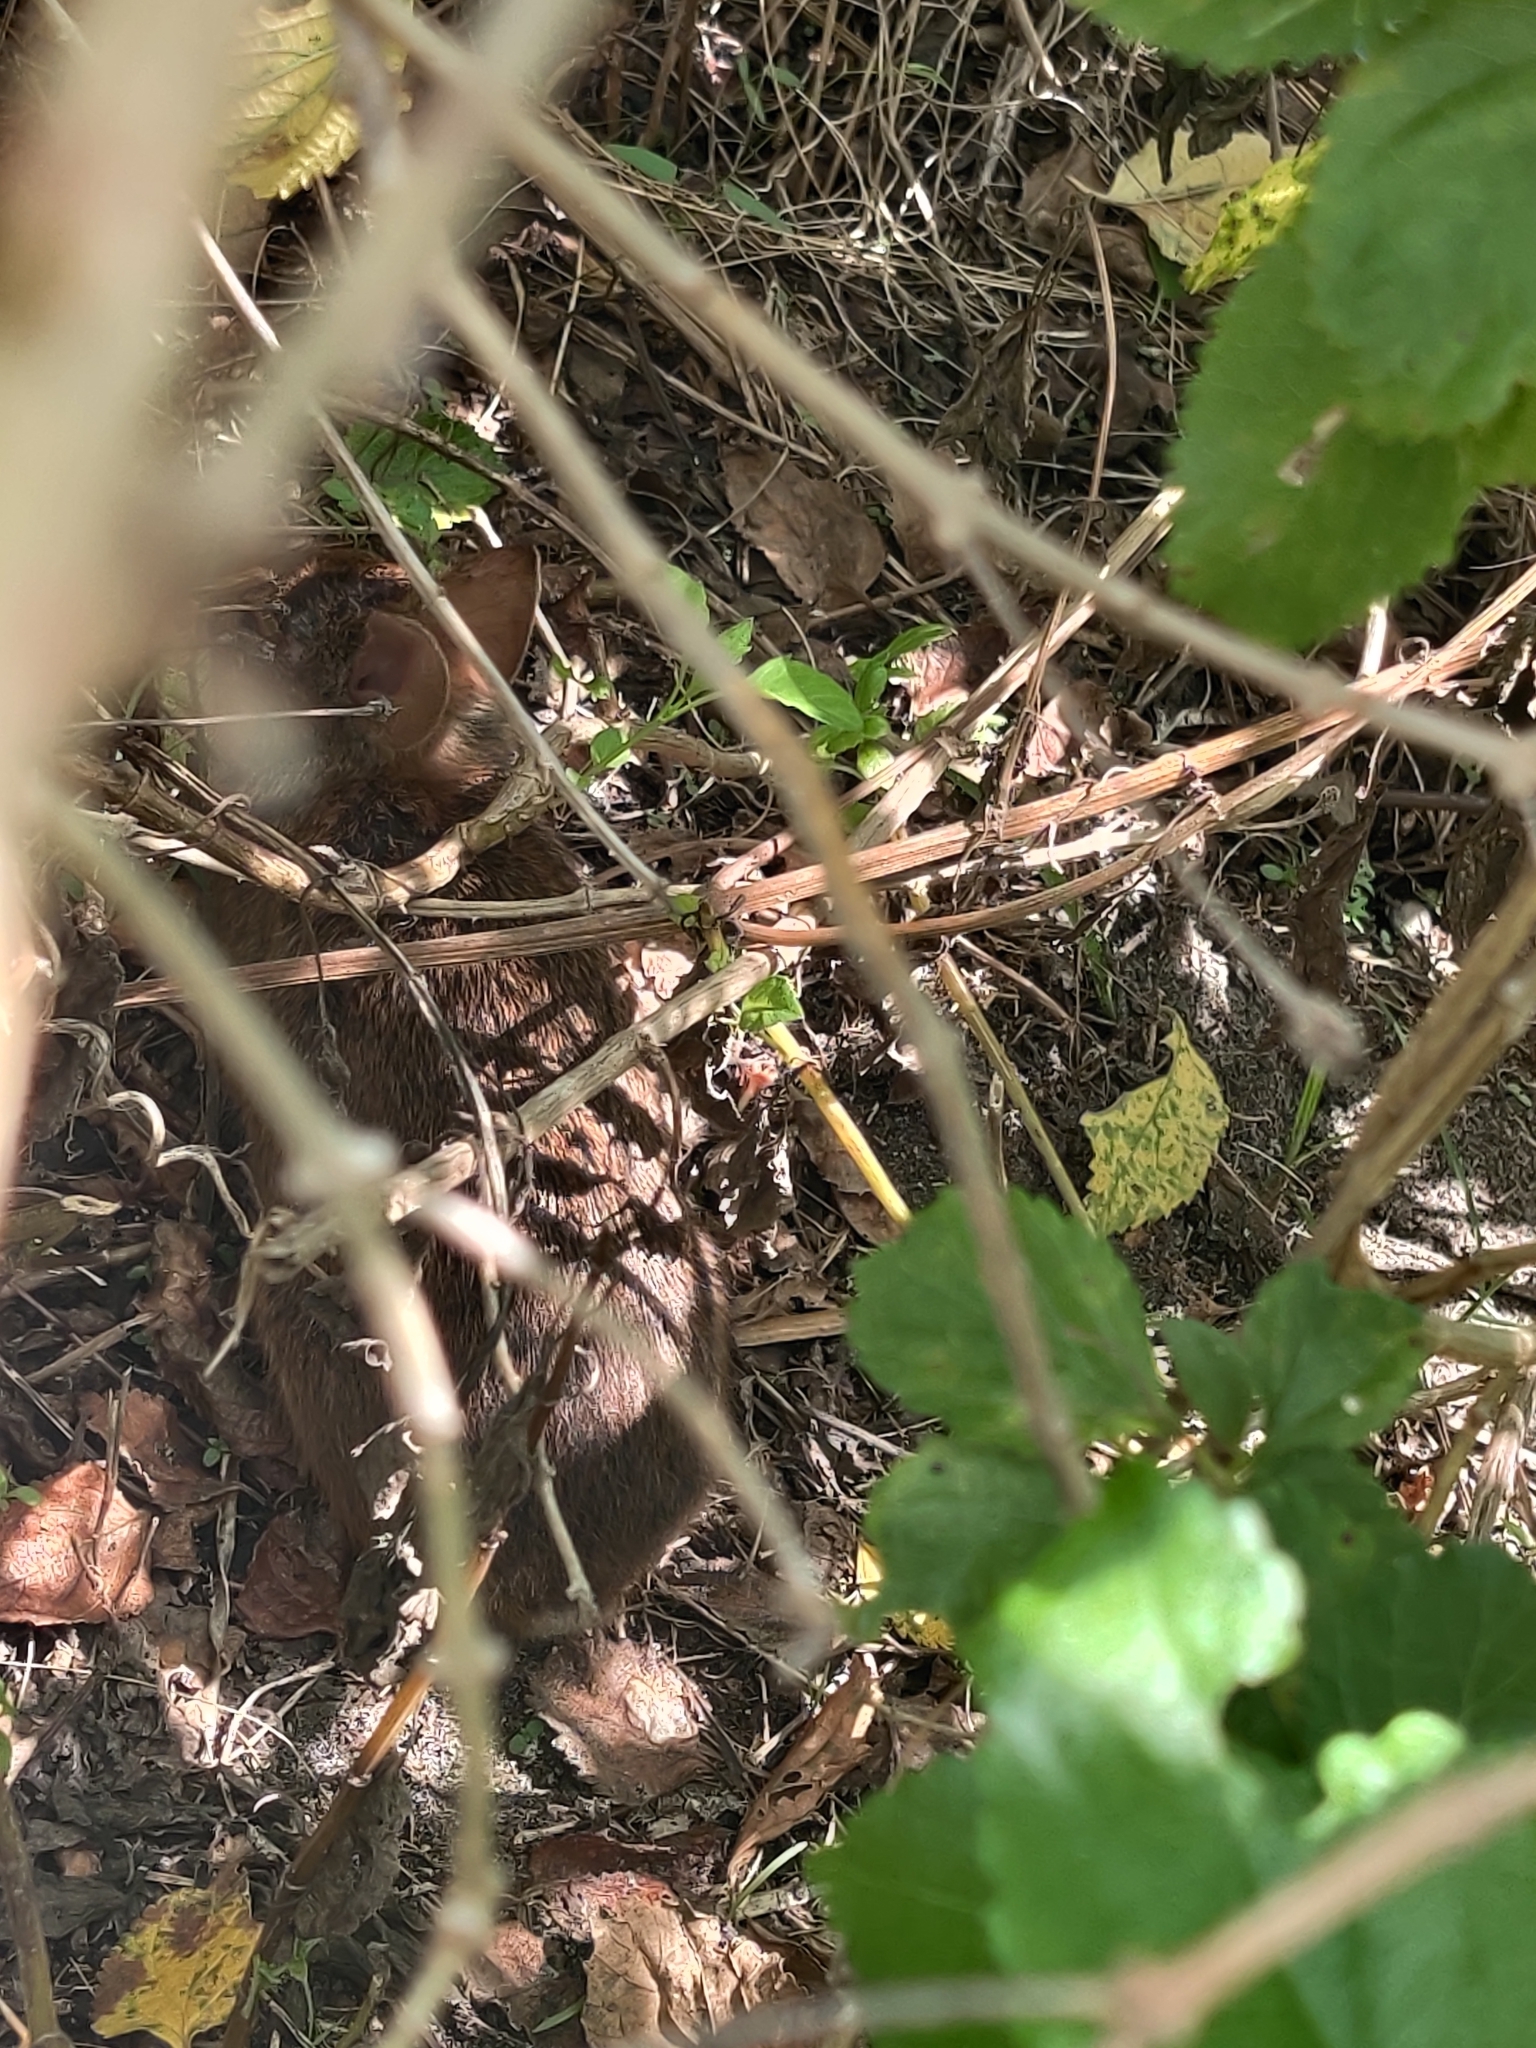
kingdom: Animalia
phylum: Chordata
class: Mammalia
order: Lagomorpha
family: Leporidae
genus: Sylvilagus
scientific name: Sylvilagus palustris
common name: Marsh rabbit
